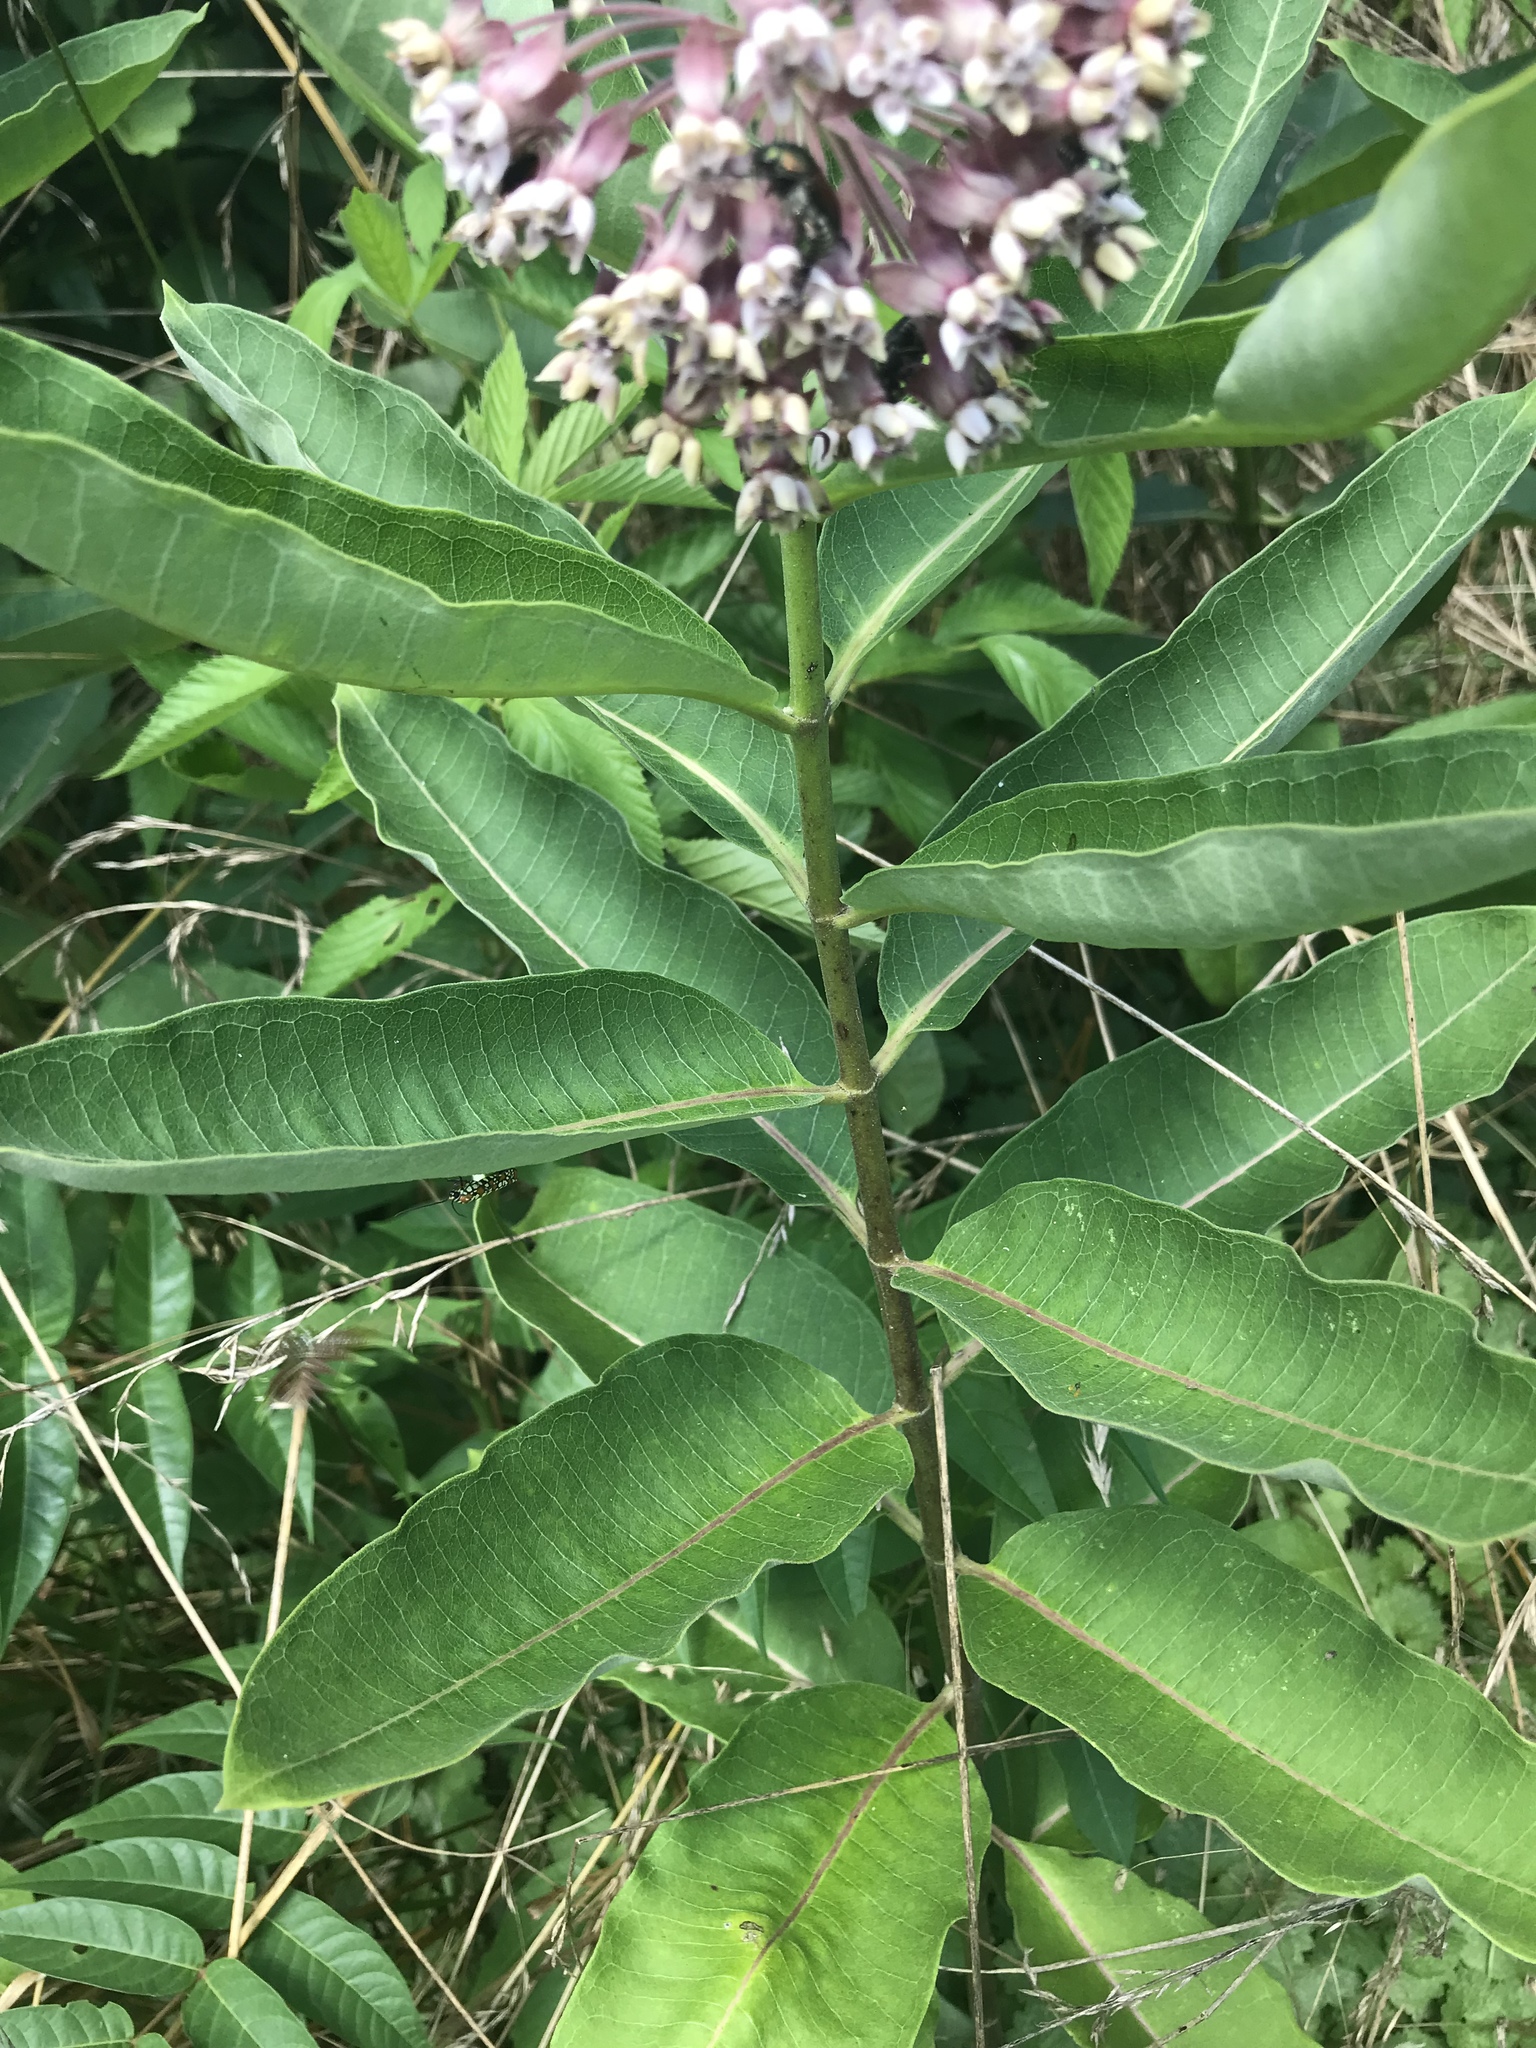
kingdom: Plantae
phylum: Tracheophyta
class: Magnoliopsida
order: Gentianales
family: Apocynaceae
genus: Asclepias
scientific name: Asclepias syriaca
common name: Common milkweed
